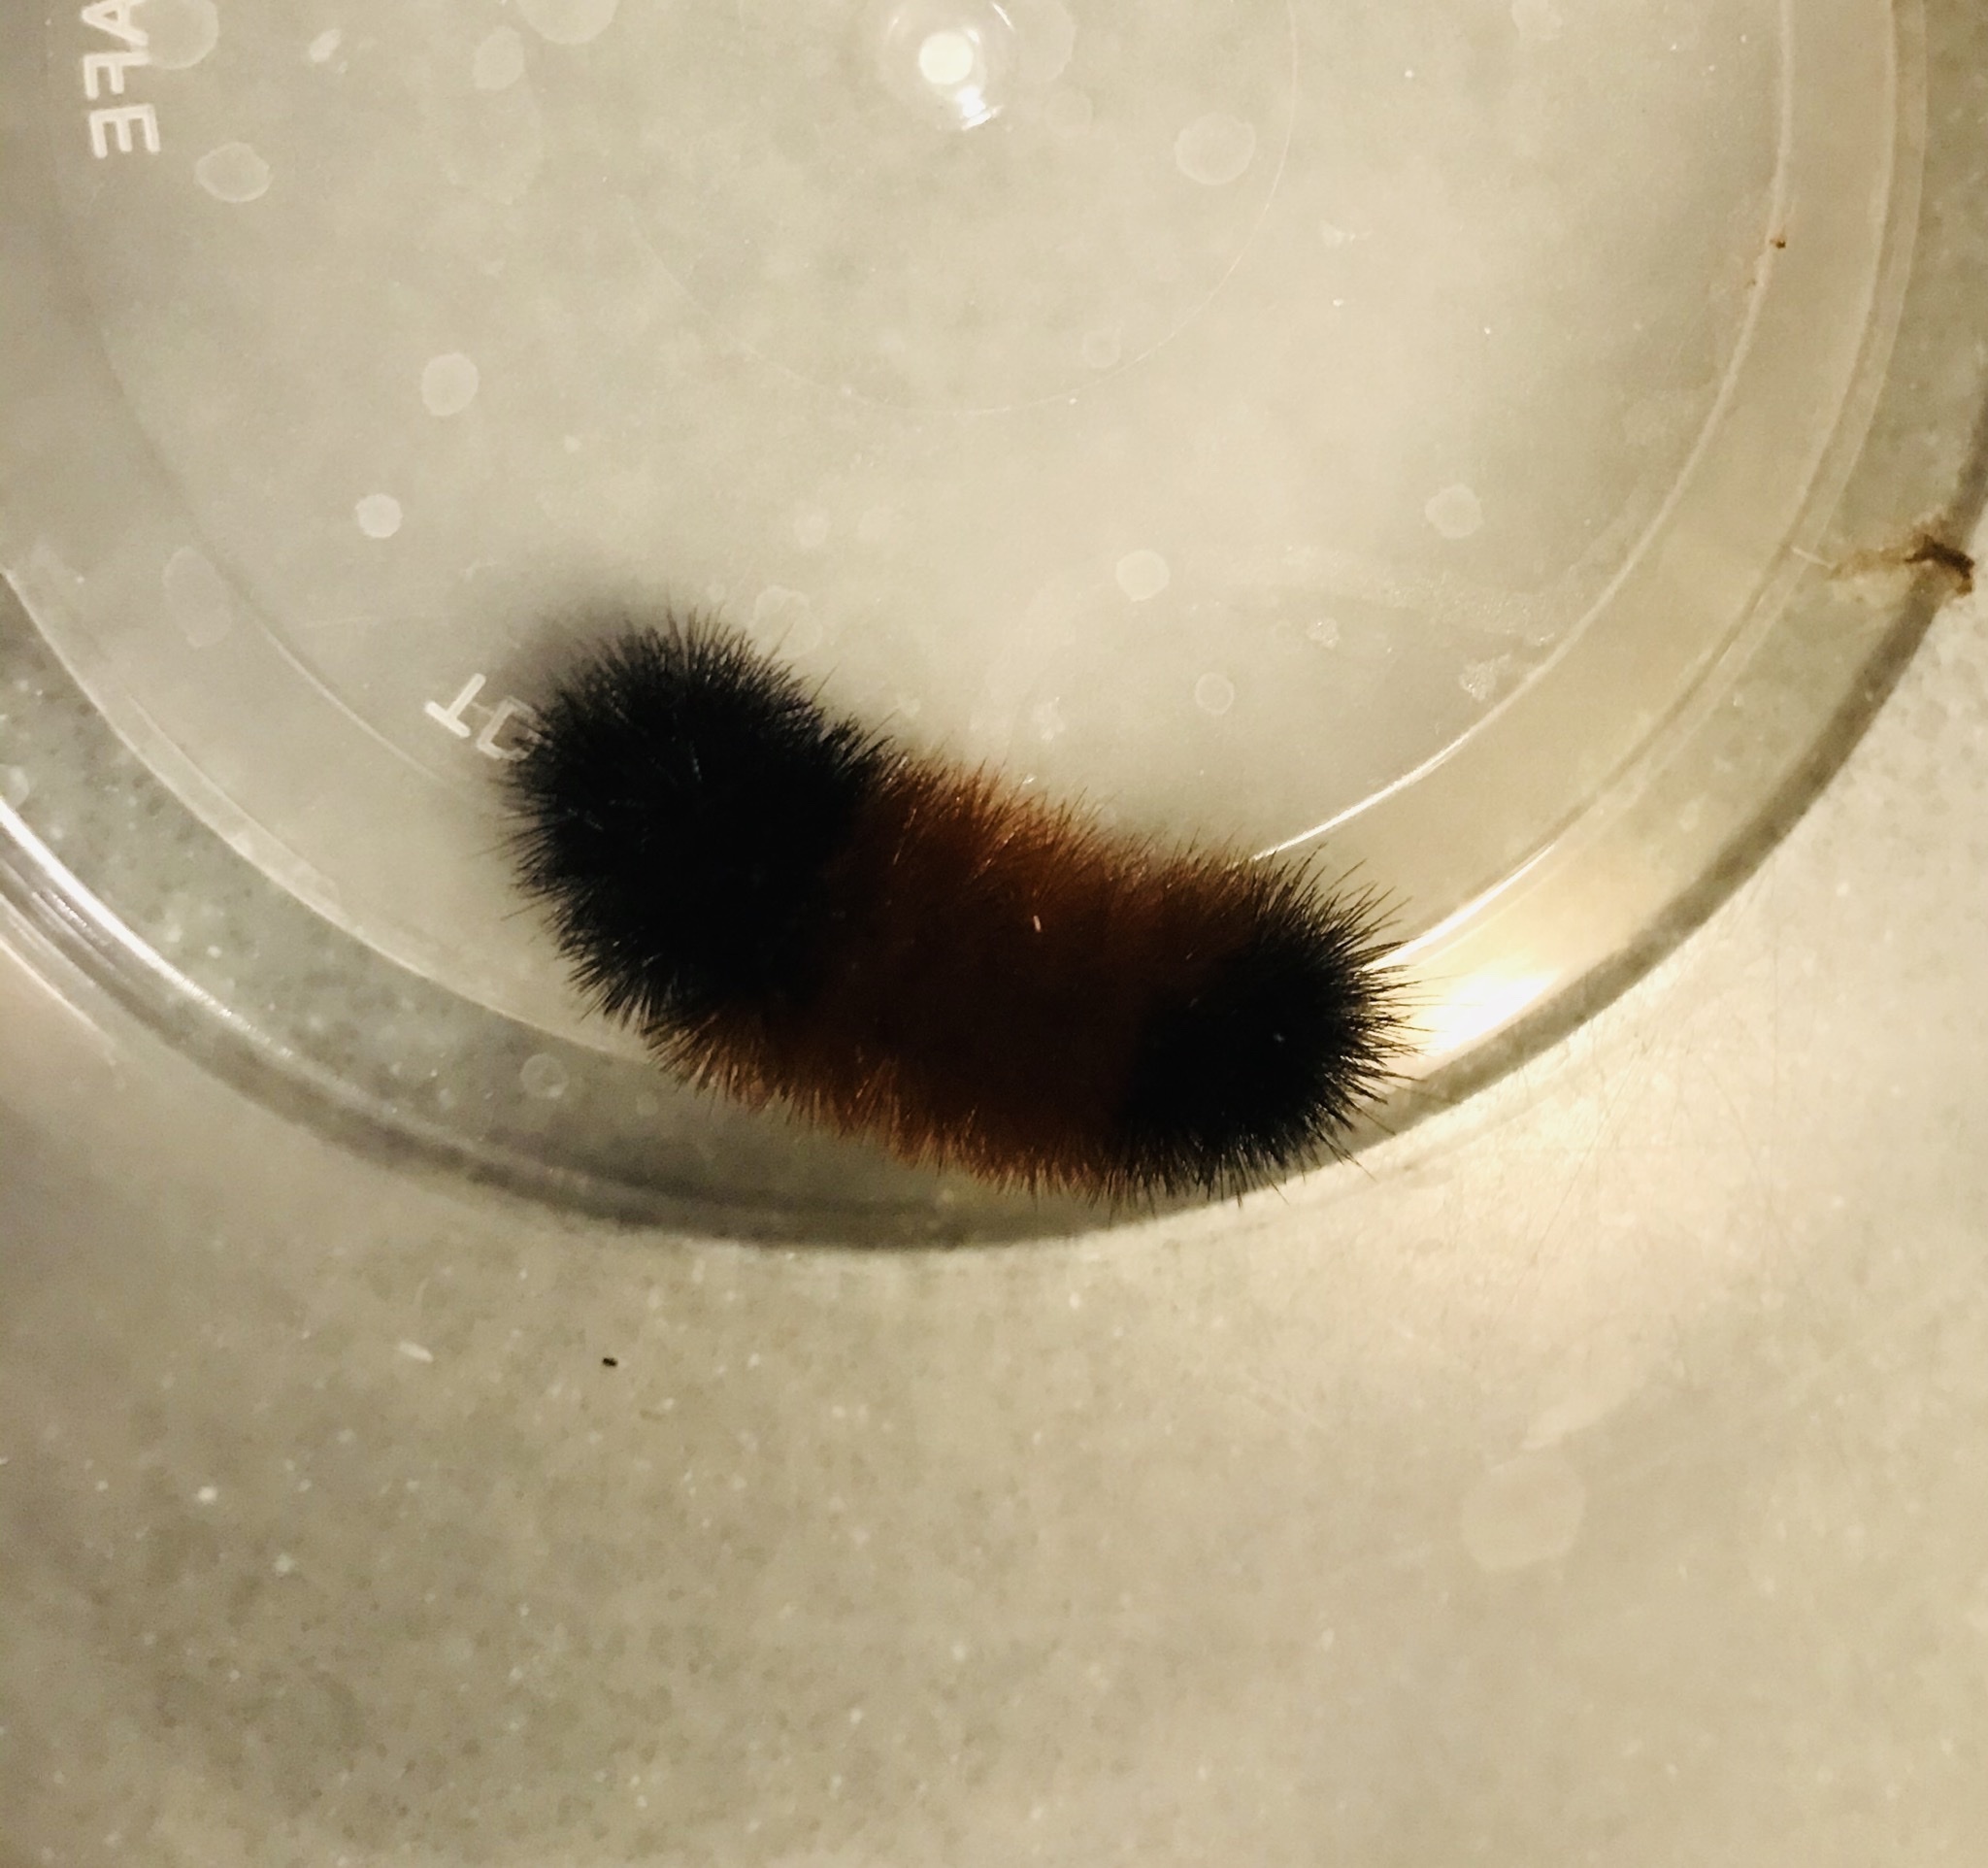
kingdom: Animalia
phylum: Arthropoda
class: Insecta
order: Lepidoptera
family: Erebidae
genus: Pyrrharctia
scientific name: Pyrrharctia isabella
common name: Isabella tiger moth
